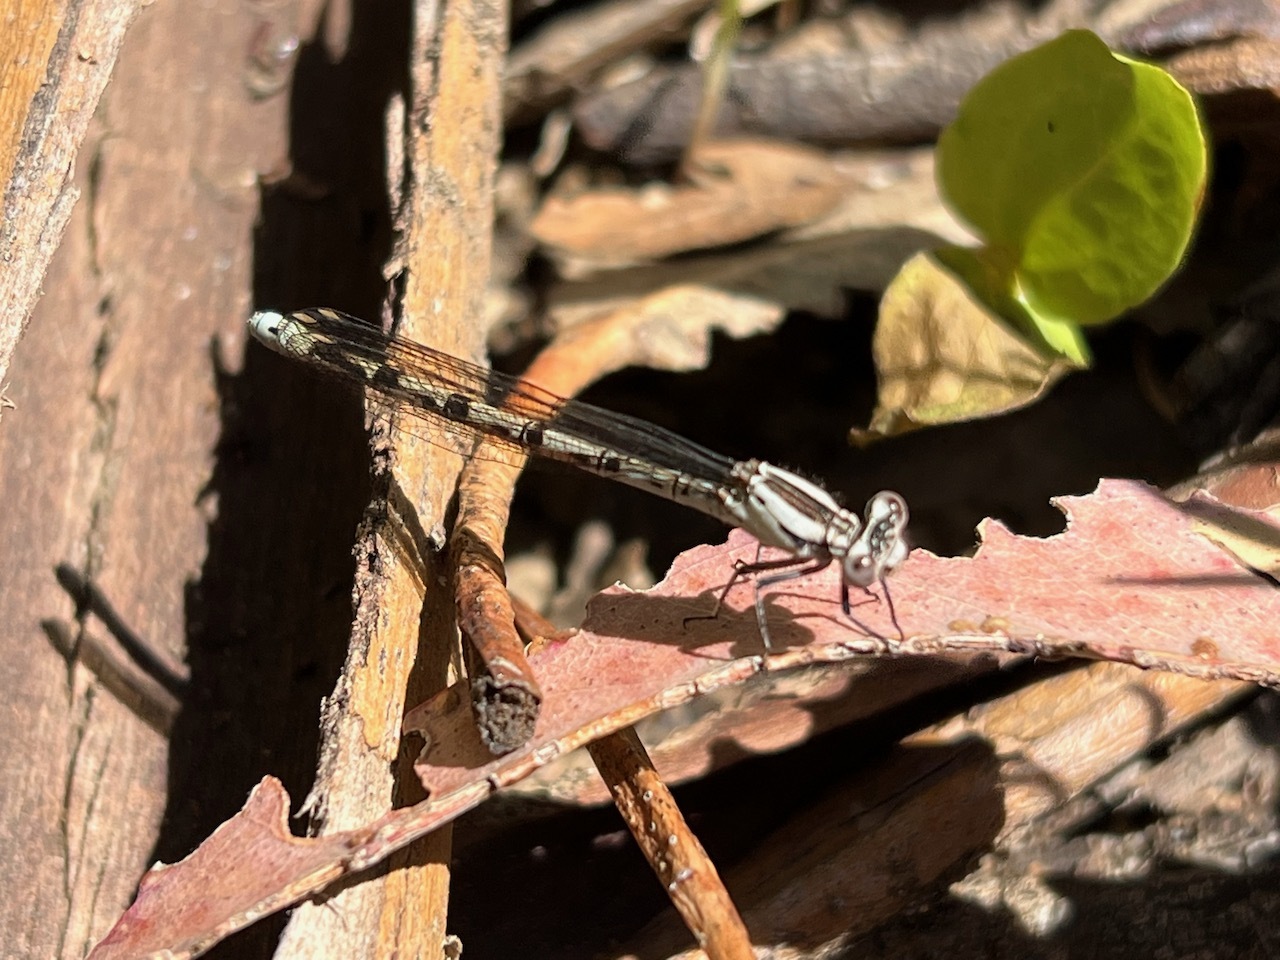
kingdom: Animalia
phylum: Arthropoda
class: Insecta
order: Odonata
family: Coenagrionidae
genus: Argia
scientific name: Argia vivida
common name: Vivid dancer
